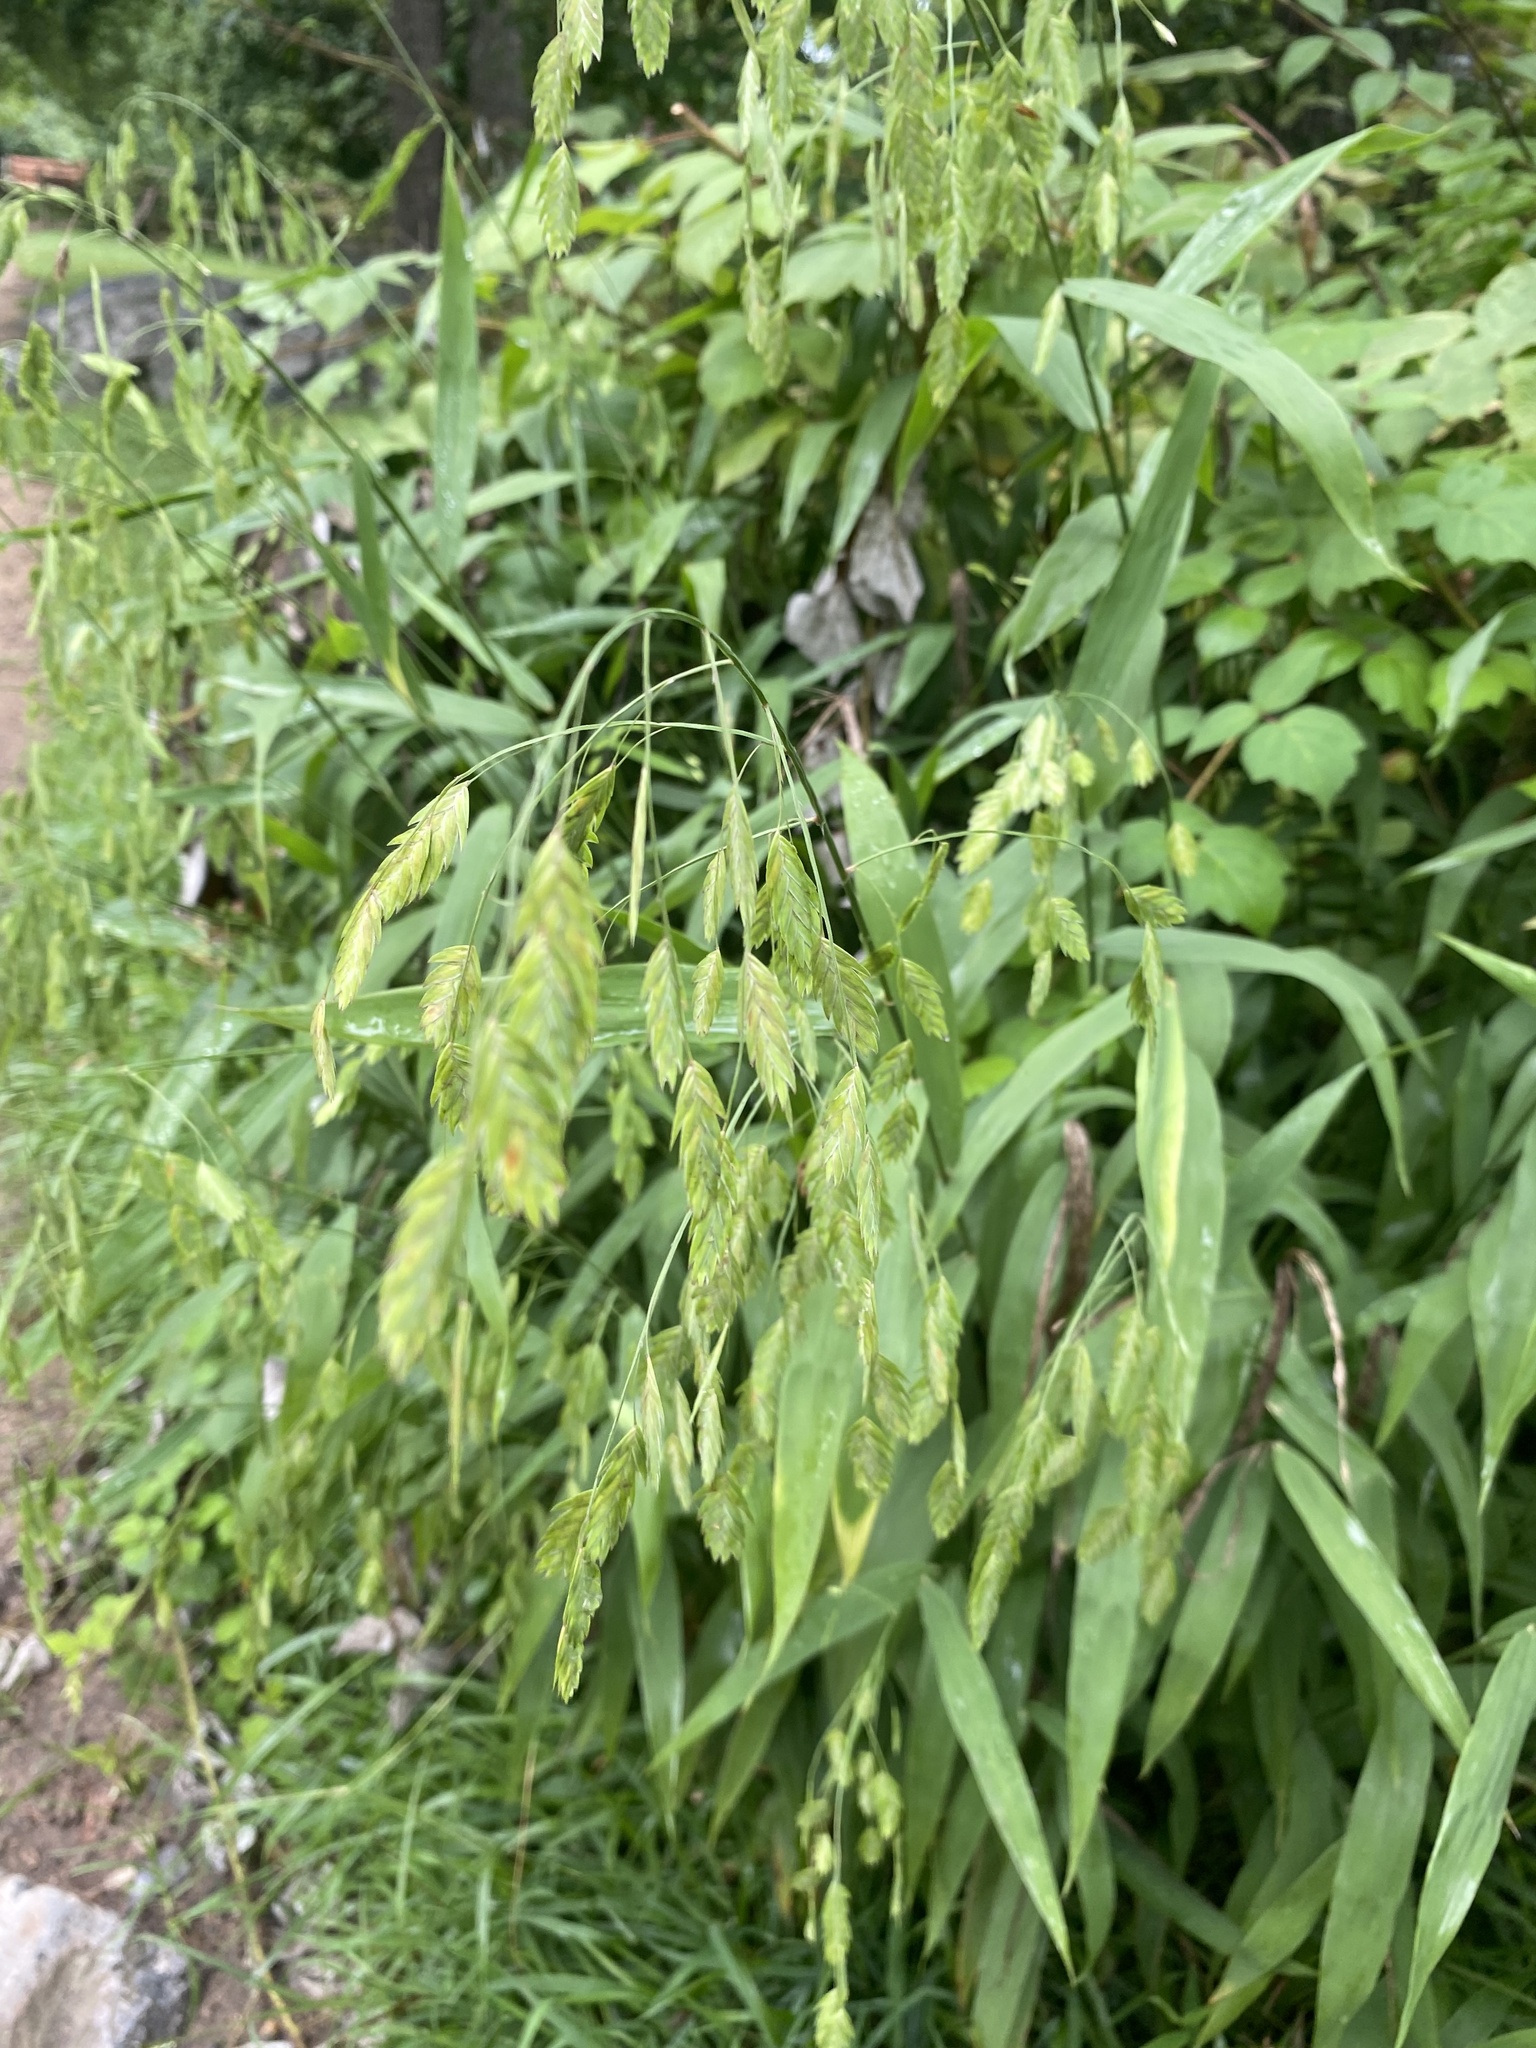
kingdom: Plantae
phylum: Tracheophyta
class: Liliopsida
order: Poales
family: Poaceae
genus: Chasmanthium
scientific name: Chasmanthium latifolium
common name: Broad-leaved chasmanthium
